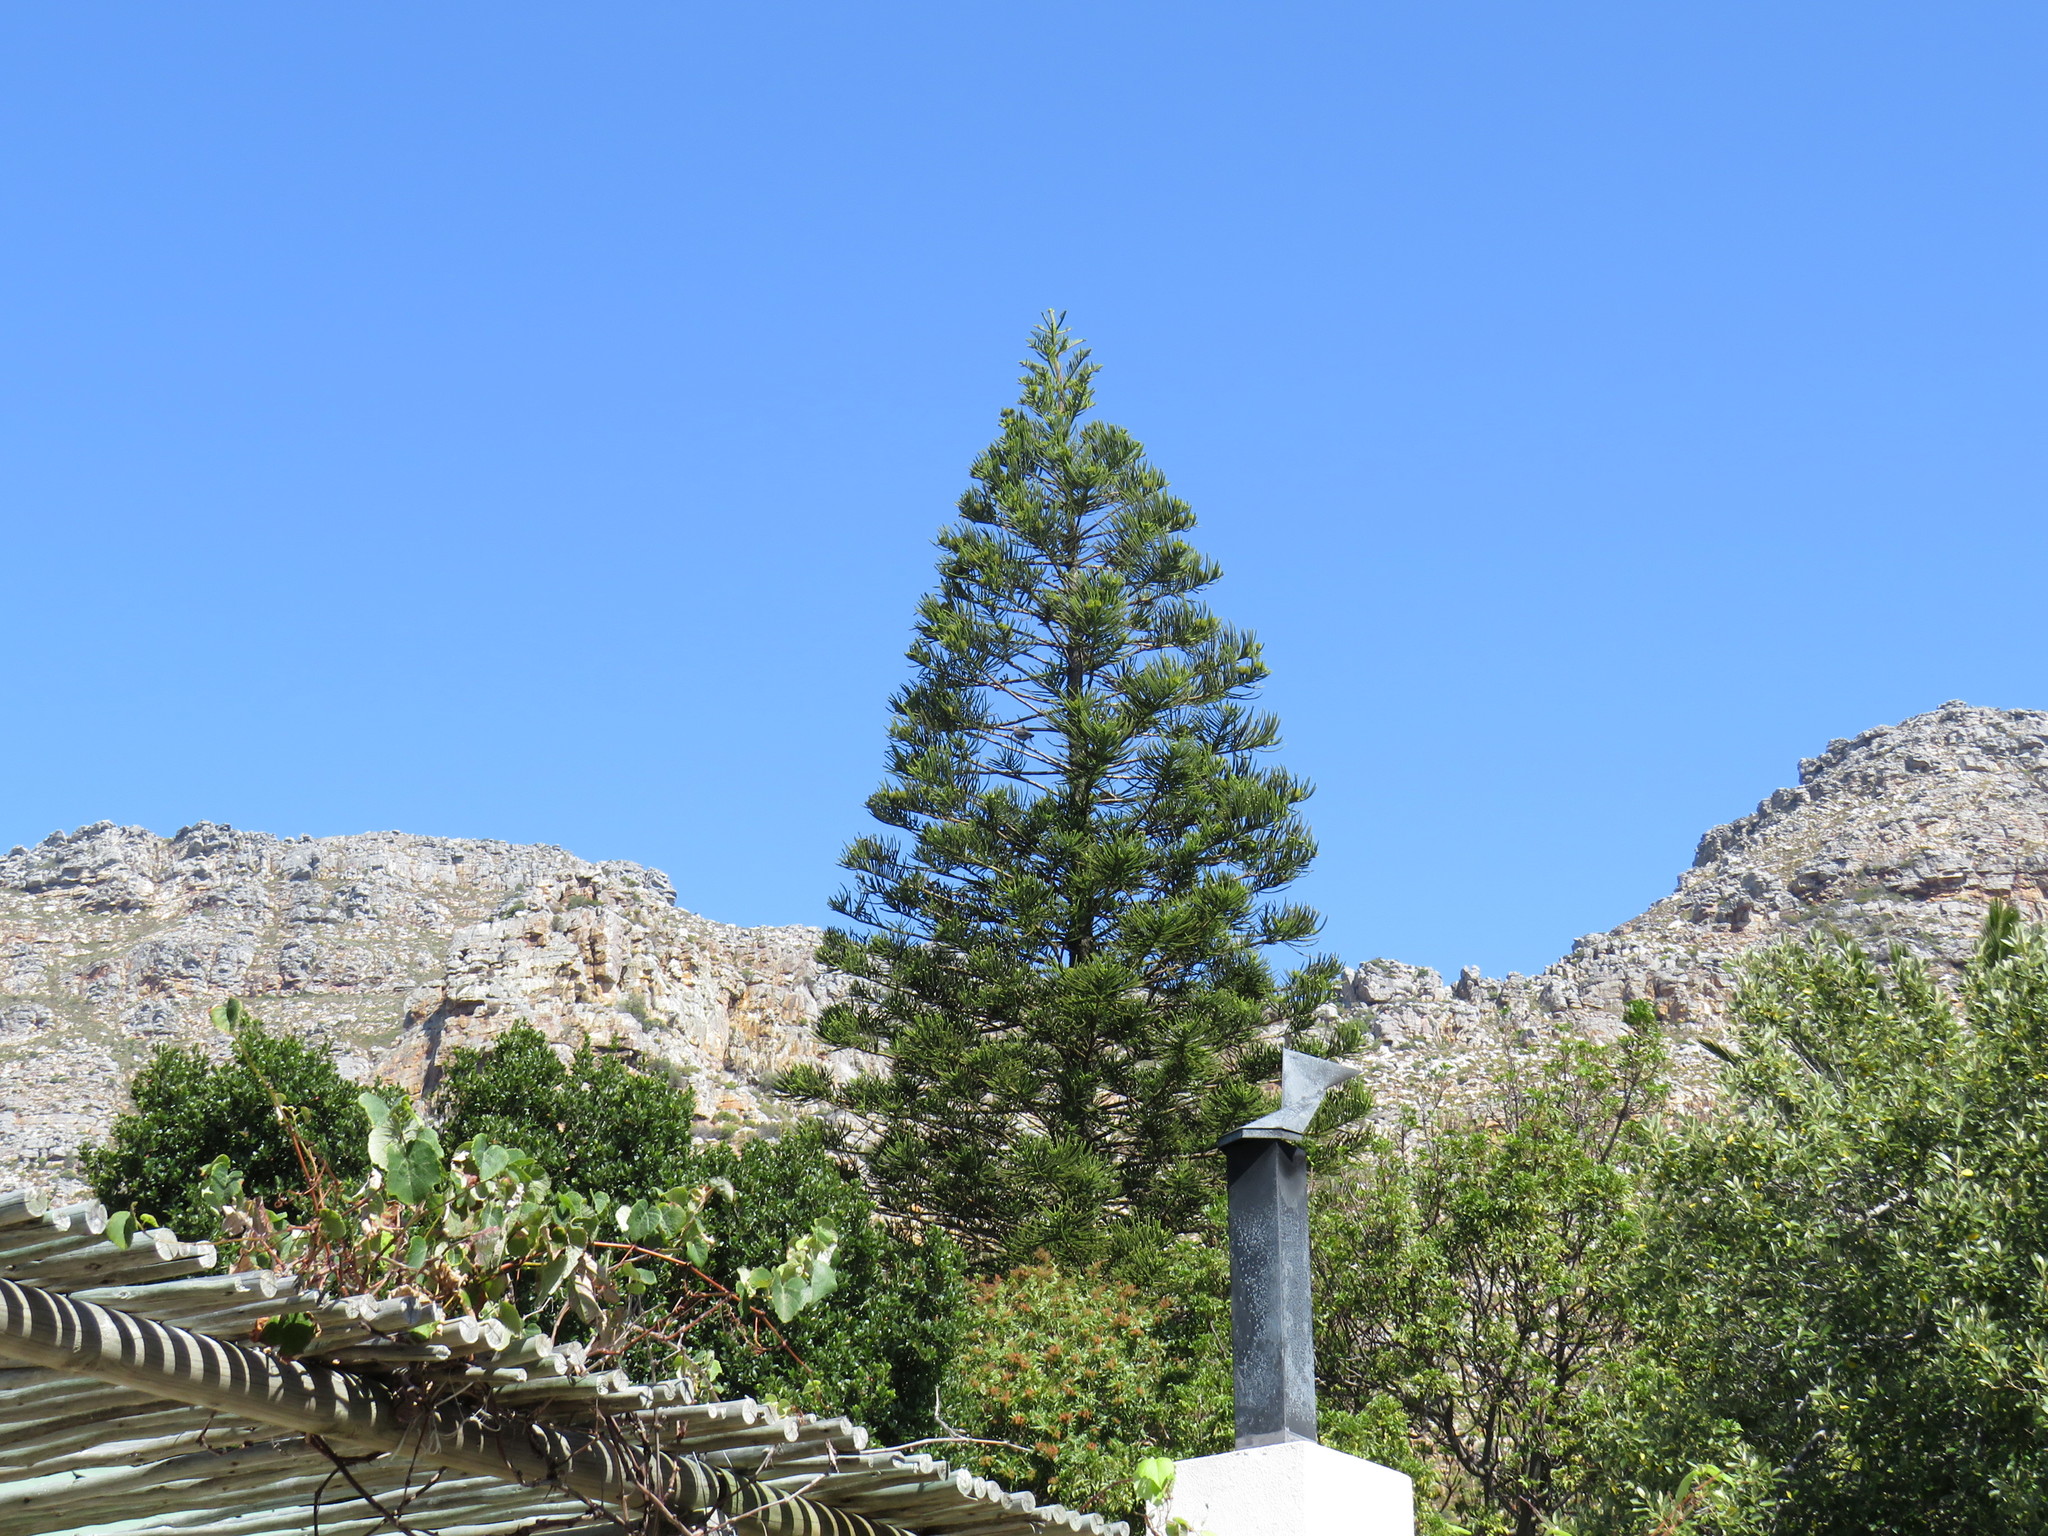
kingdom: Animalia
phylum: Chordata
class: Aves
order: Columbiformes
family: Columbidae
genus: Streptopelia
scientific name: Streptopelia semitorquata
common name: Red-eyed dove
